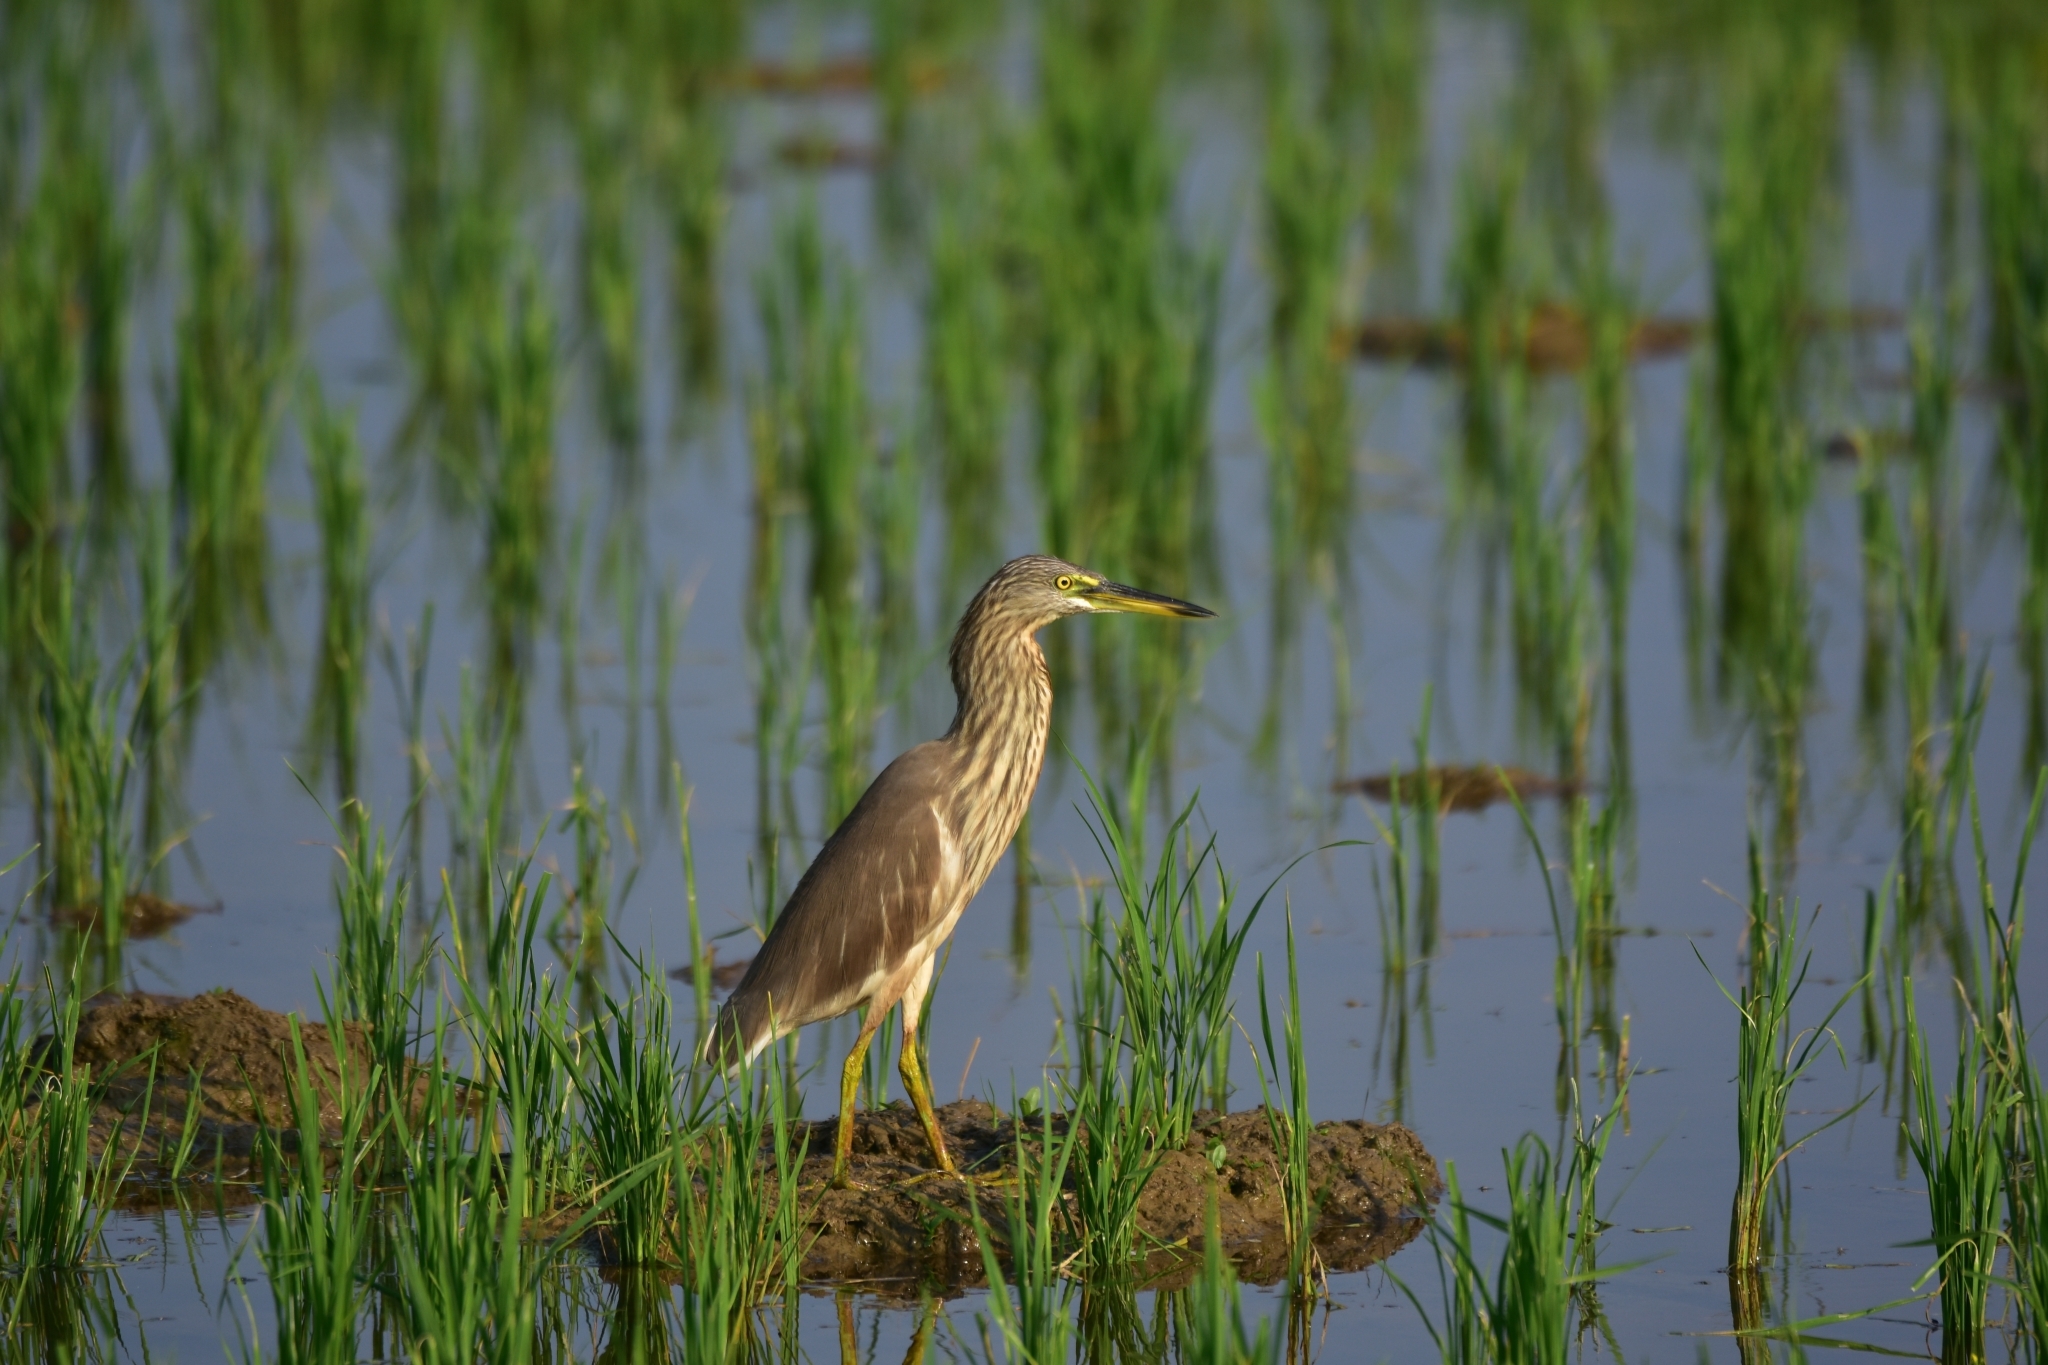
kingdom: Animalia
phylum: Chordata
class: Aves
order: Pelecaniformes
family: Ardeidae
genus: Ardeola
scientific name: Ardeola grayii
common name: Indian pond heron
